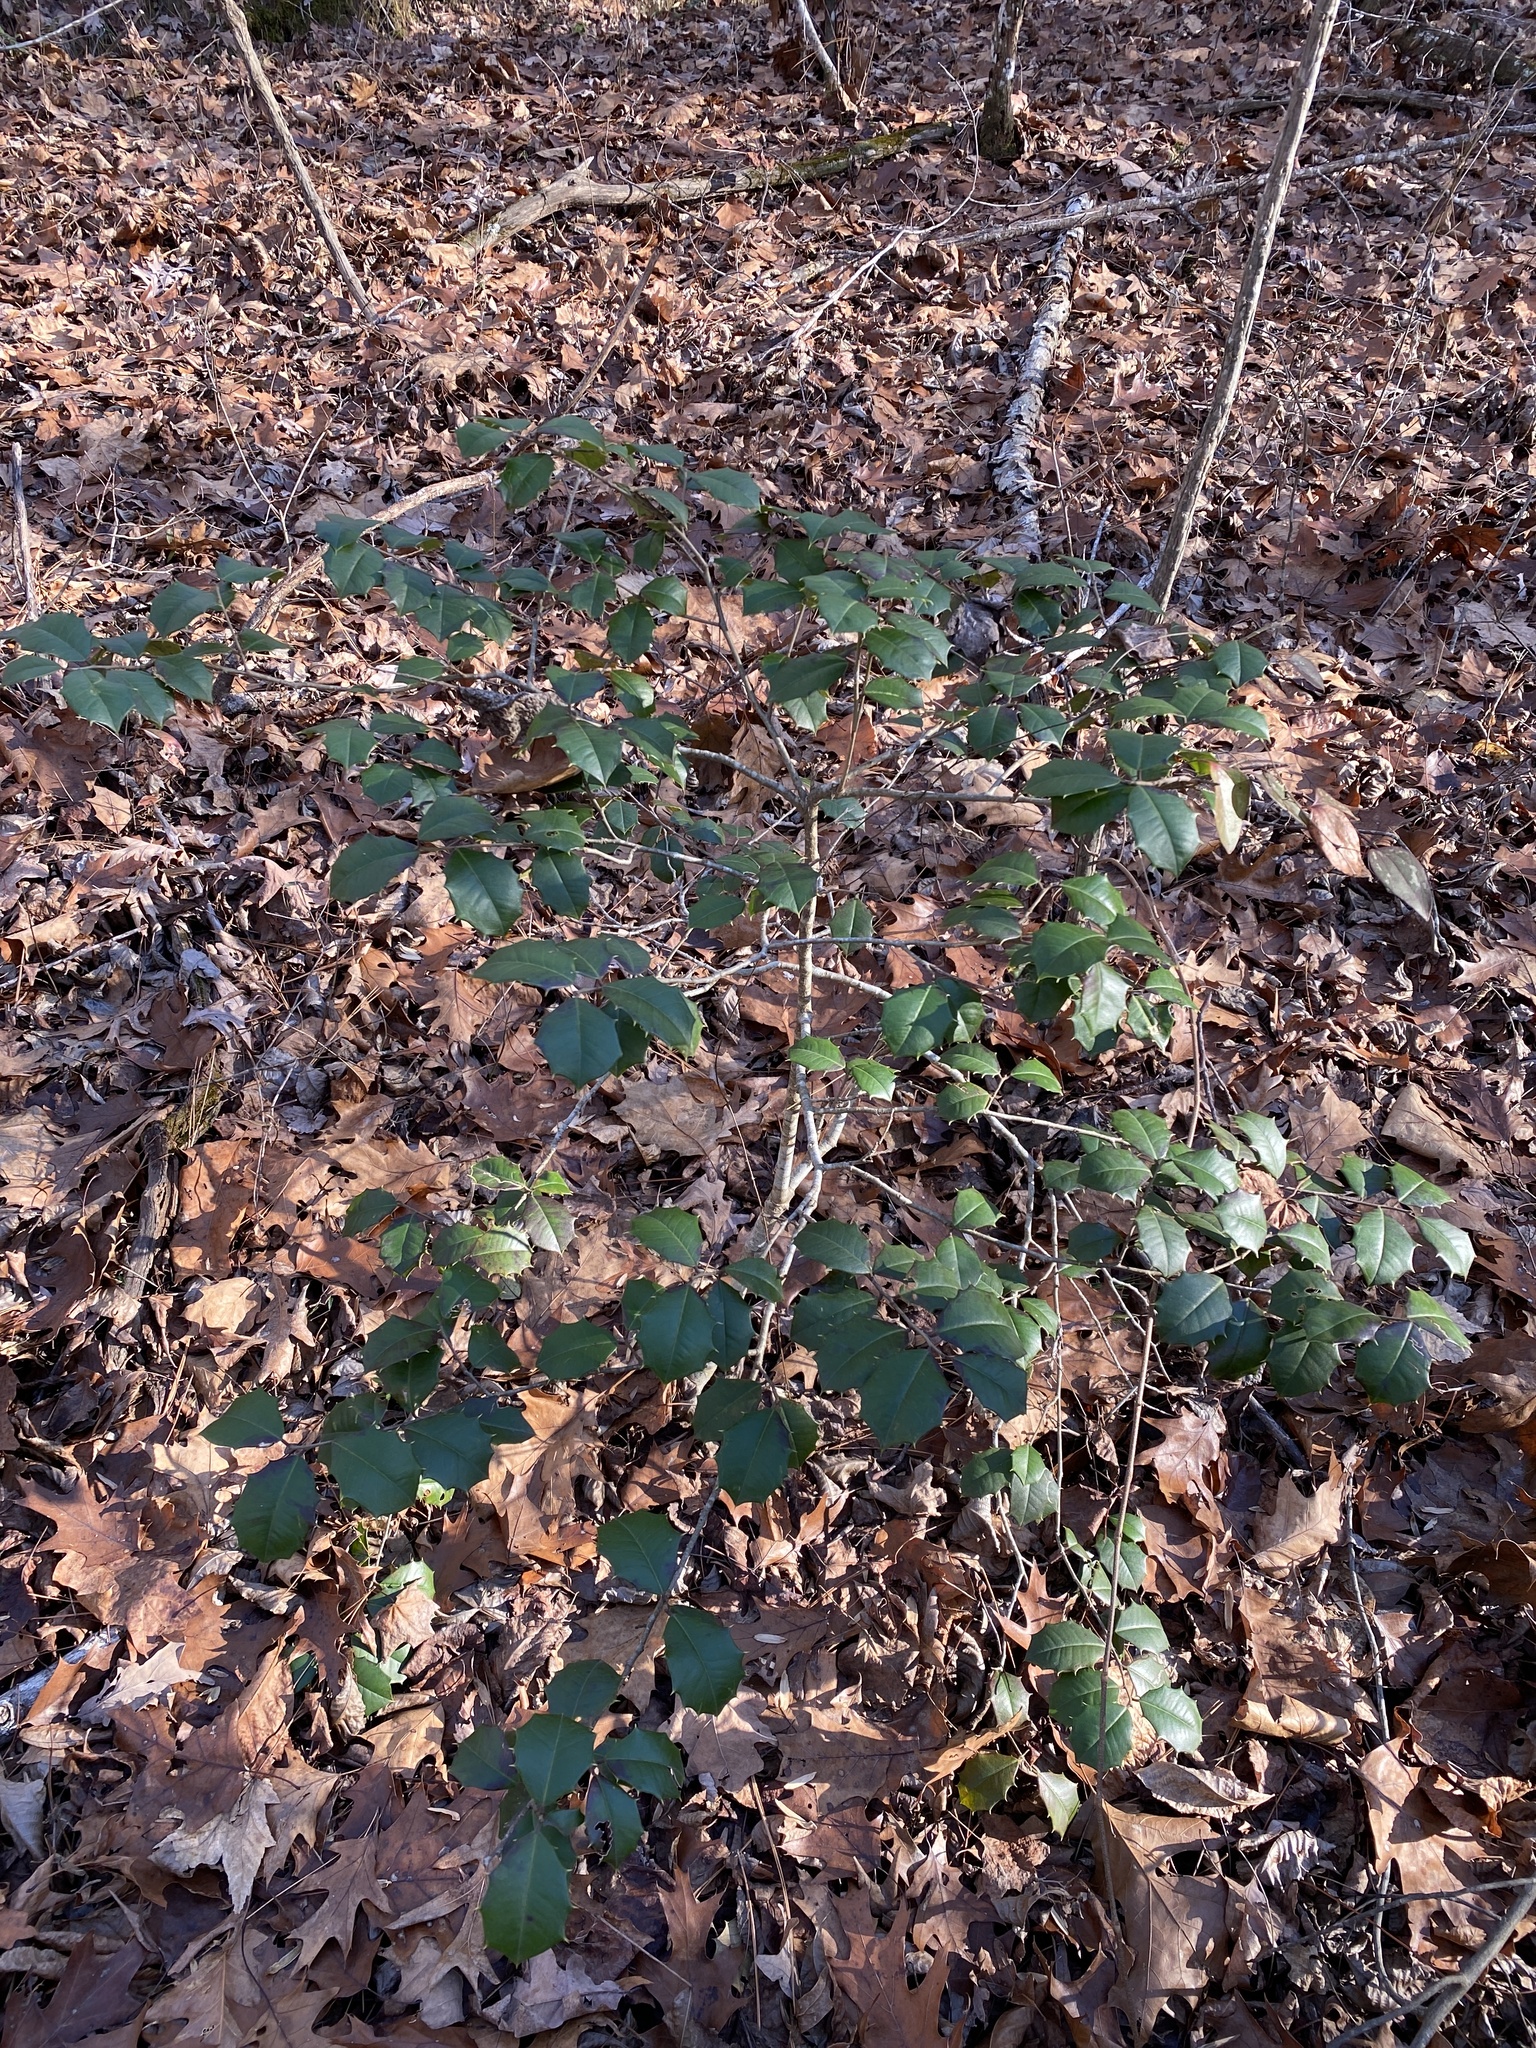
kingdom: Plantae
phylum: Tracheophyta
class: Magnoliopsida
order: Aquifoliales
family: Aquifoliaceae
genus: Ilex
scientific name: Ilex opaca
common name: American holly
